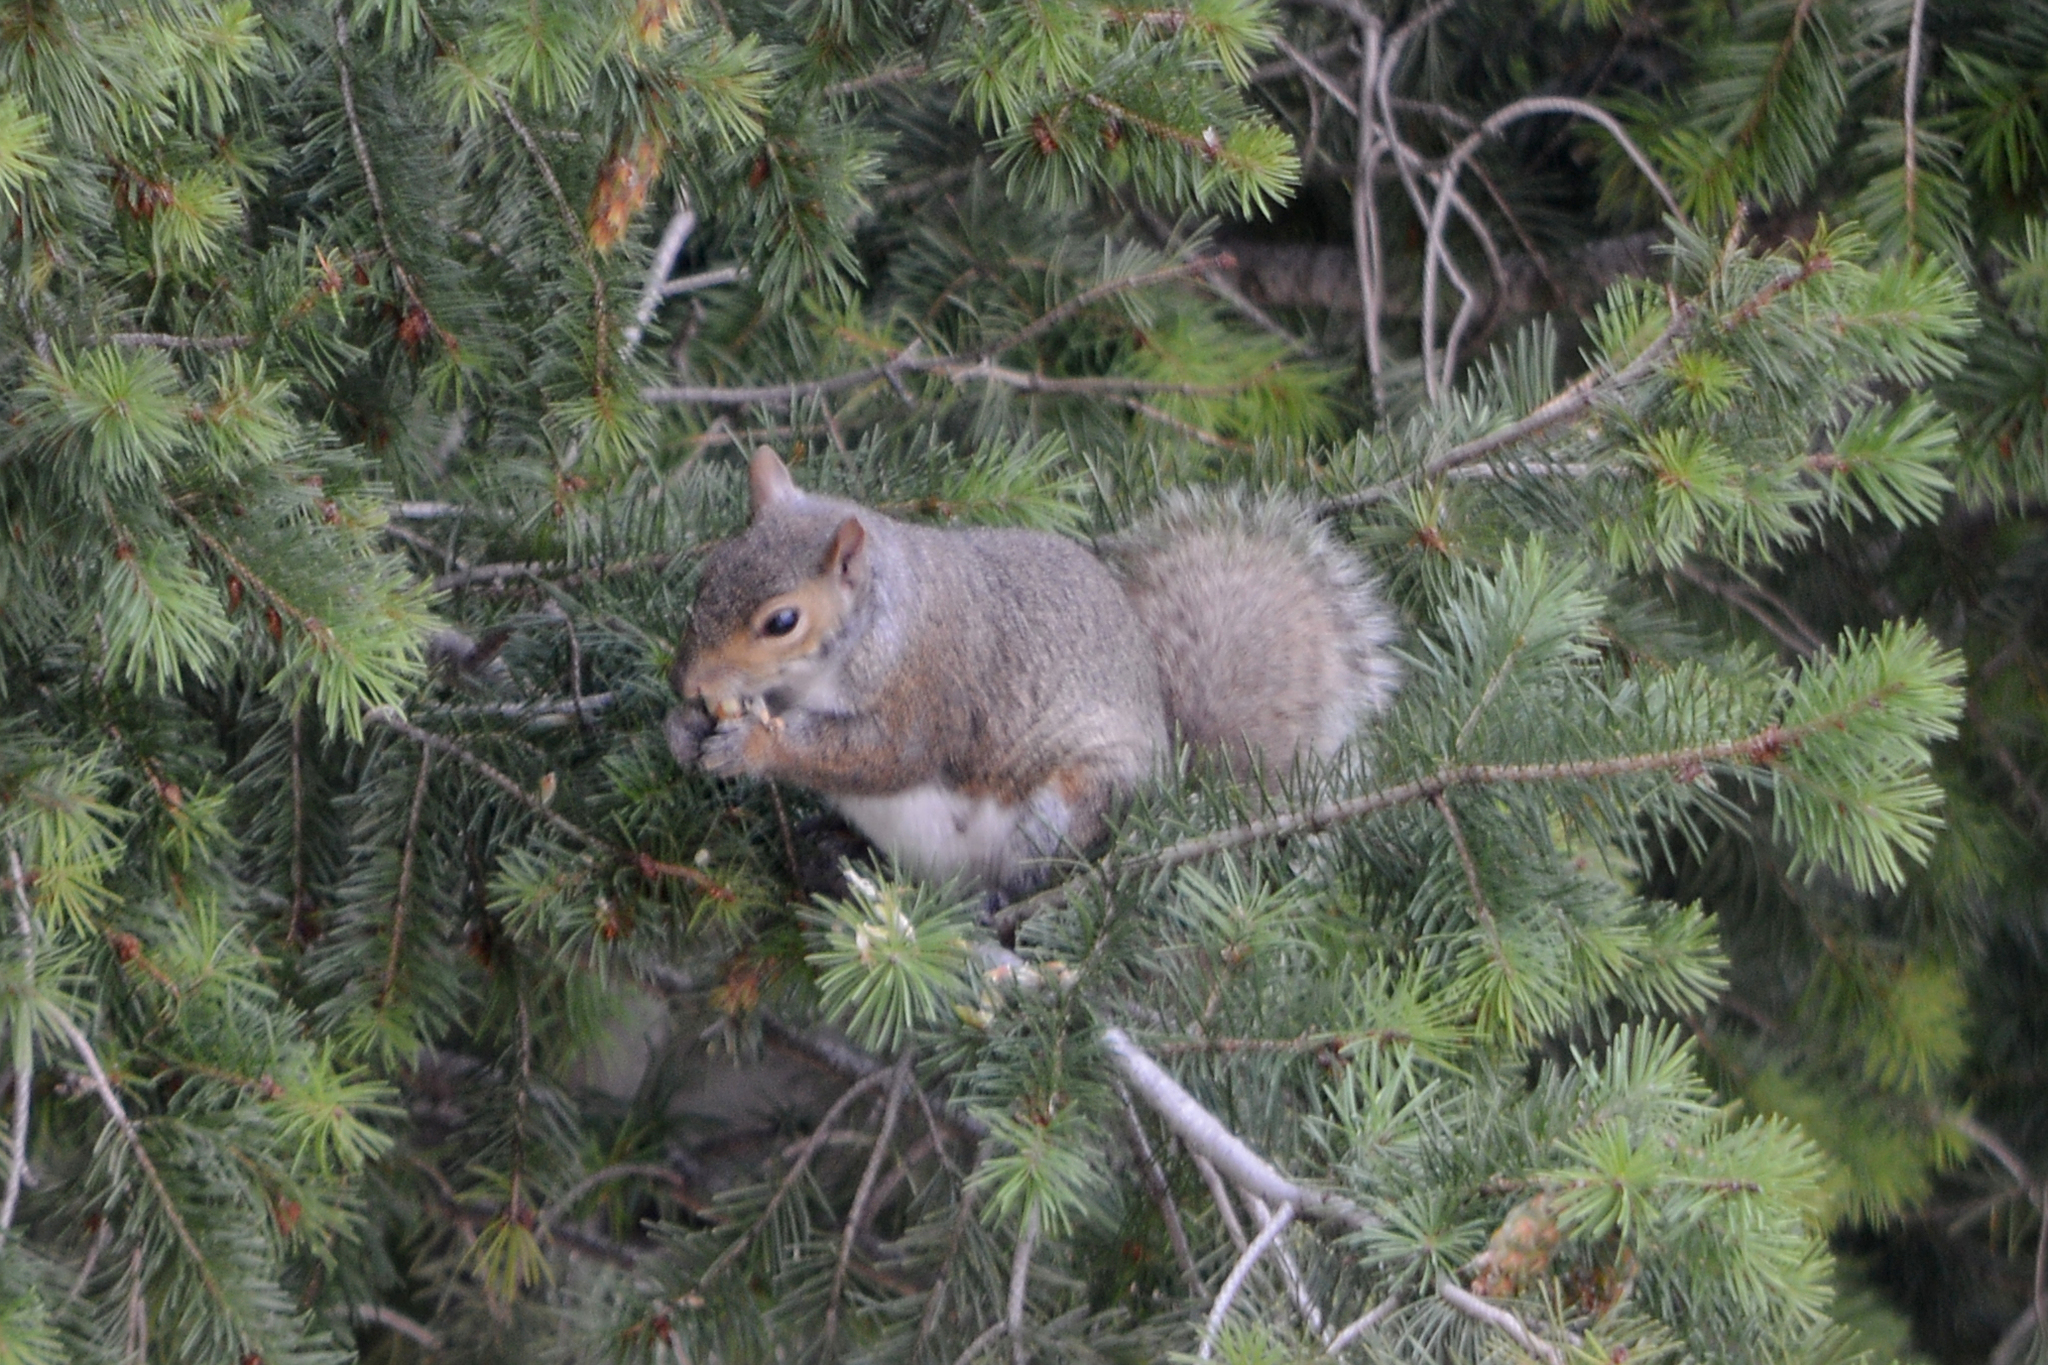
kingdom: Animalia
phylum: Chordata
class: Mammalia
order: Rodentia
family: Sciuridae
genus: Sciurus
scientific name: Sciurus carolinensis
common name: Eastern gray squirrel
